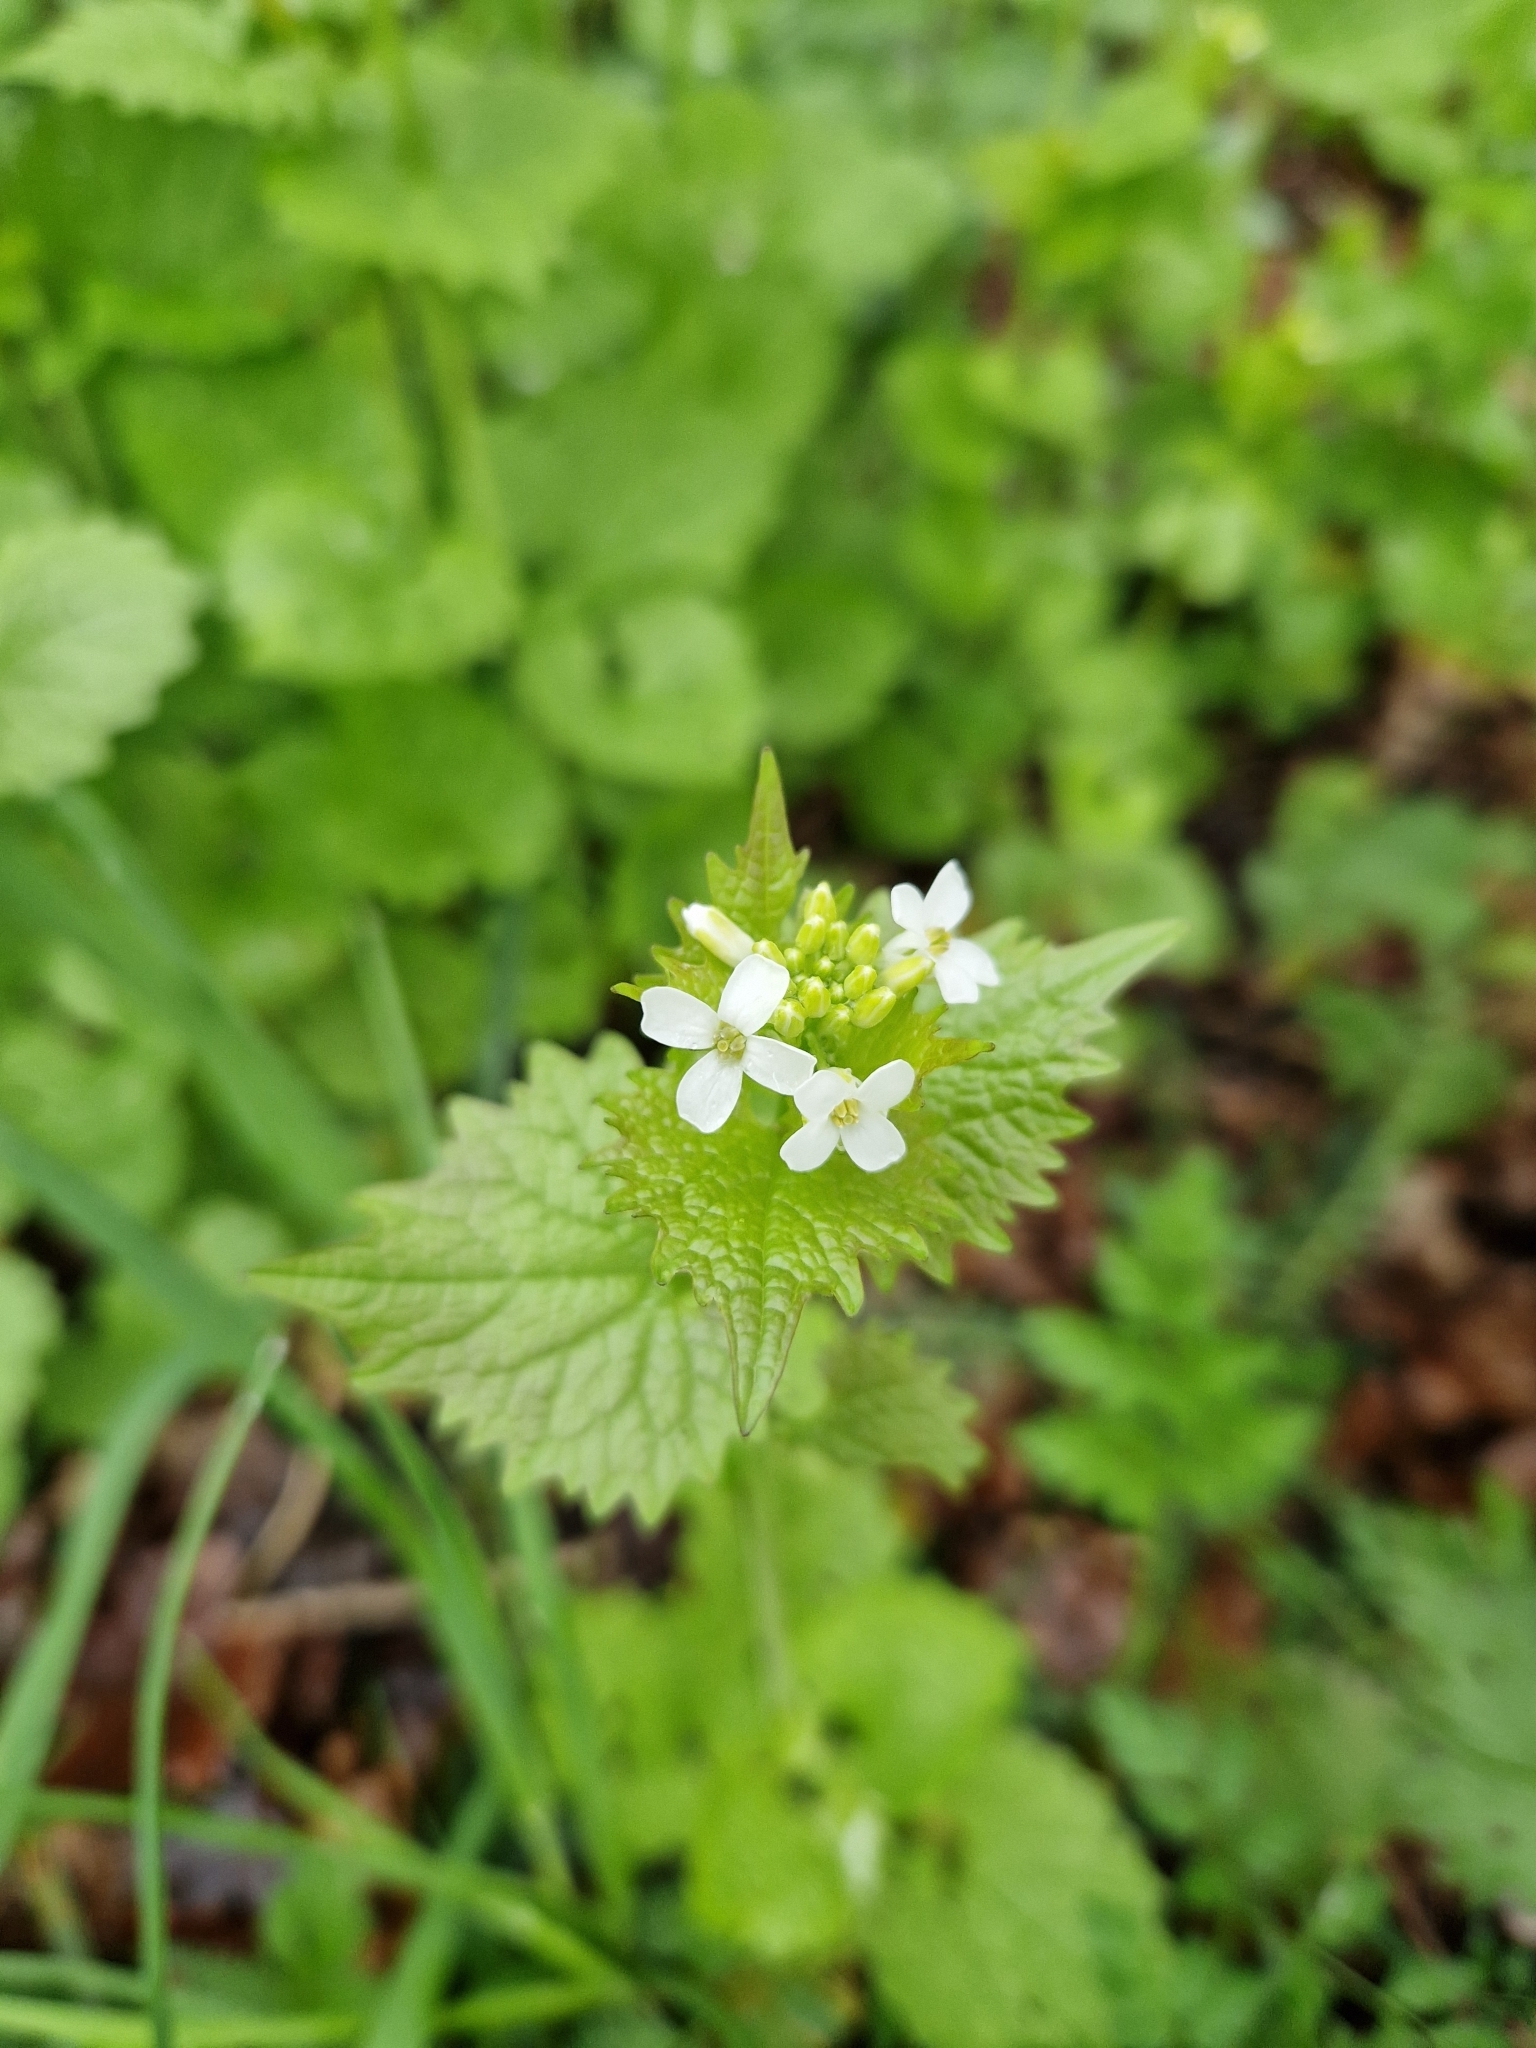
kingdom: Plantae
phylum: Tracheophyta
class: Magnoliopsida
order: Brassicales
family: Brassicaceae
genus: Alliaria
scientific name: Alliaria petiolata
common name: Garlic mustard
